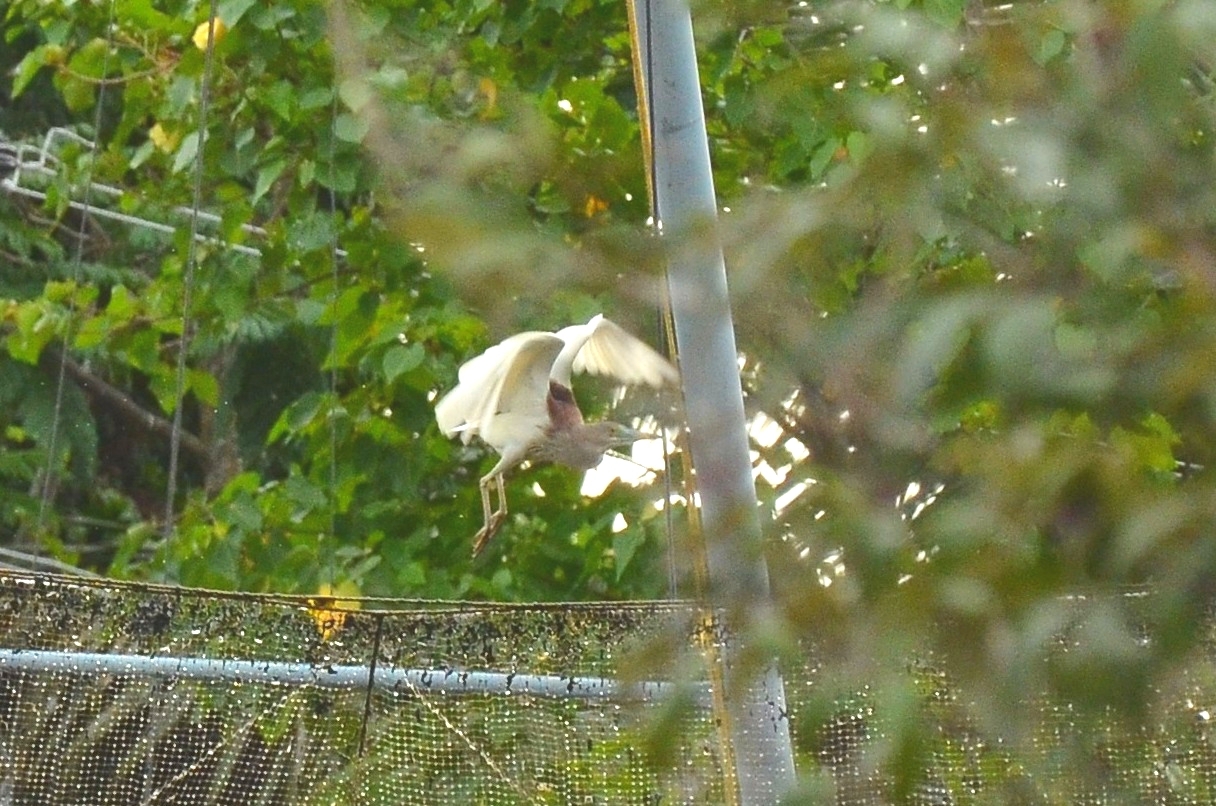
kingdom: Animalia
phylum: Chordata
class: Aves
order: Pelecaniformes
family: Ardeidae
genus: Ardeola
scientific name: Ardeola grayii
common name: Indian pond heron
